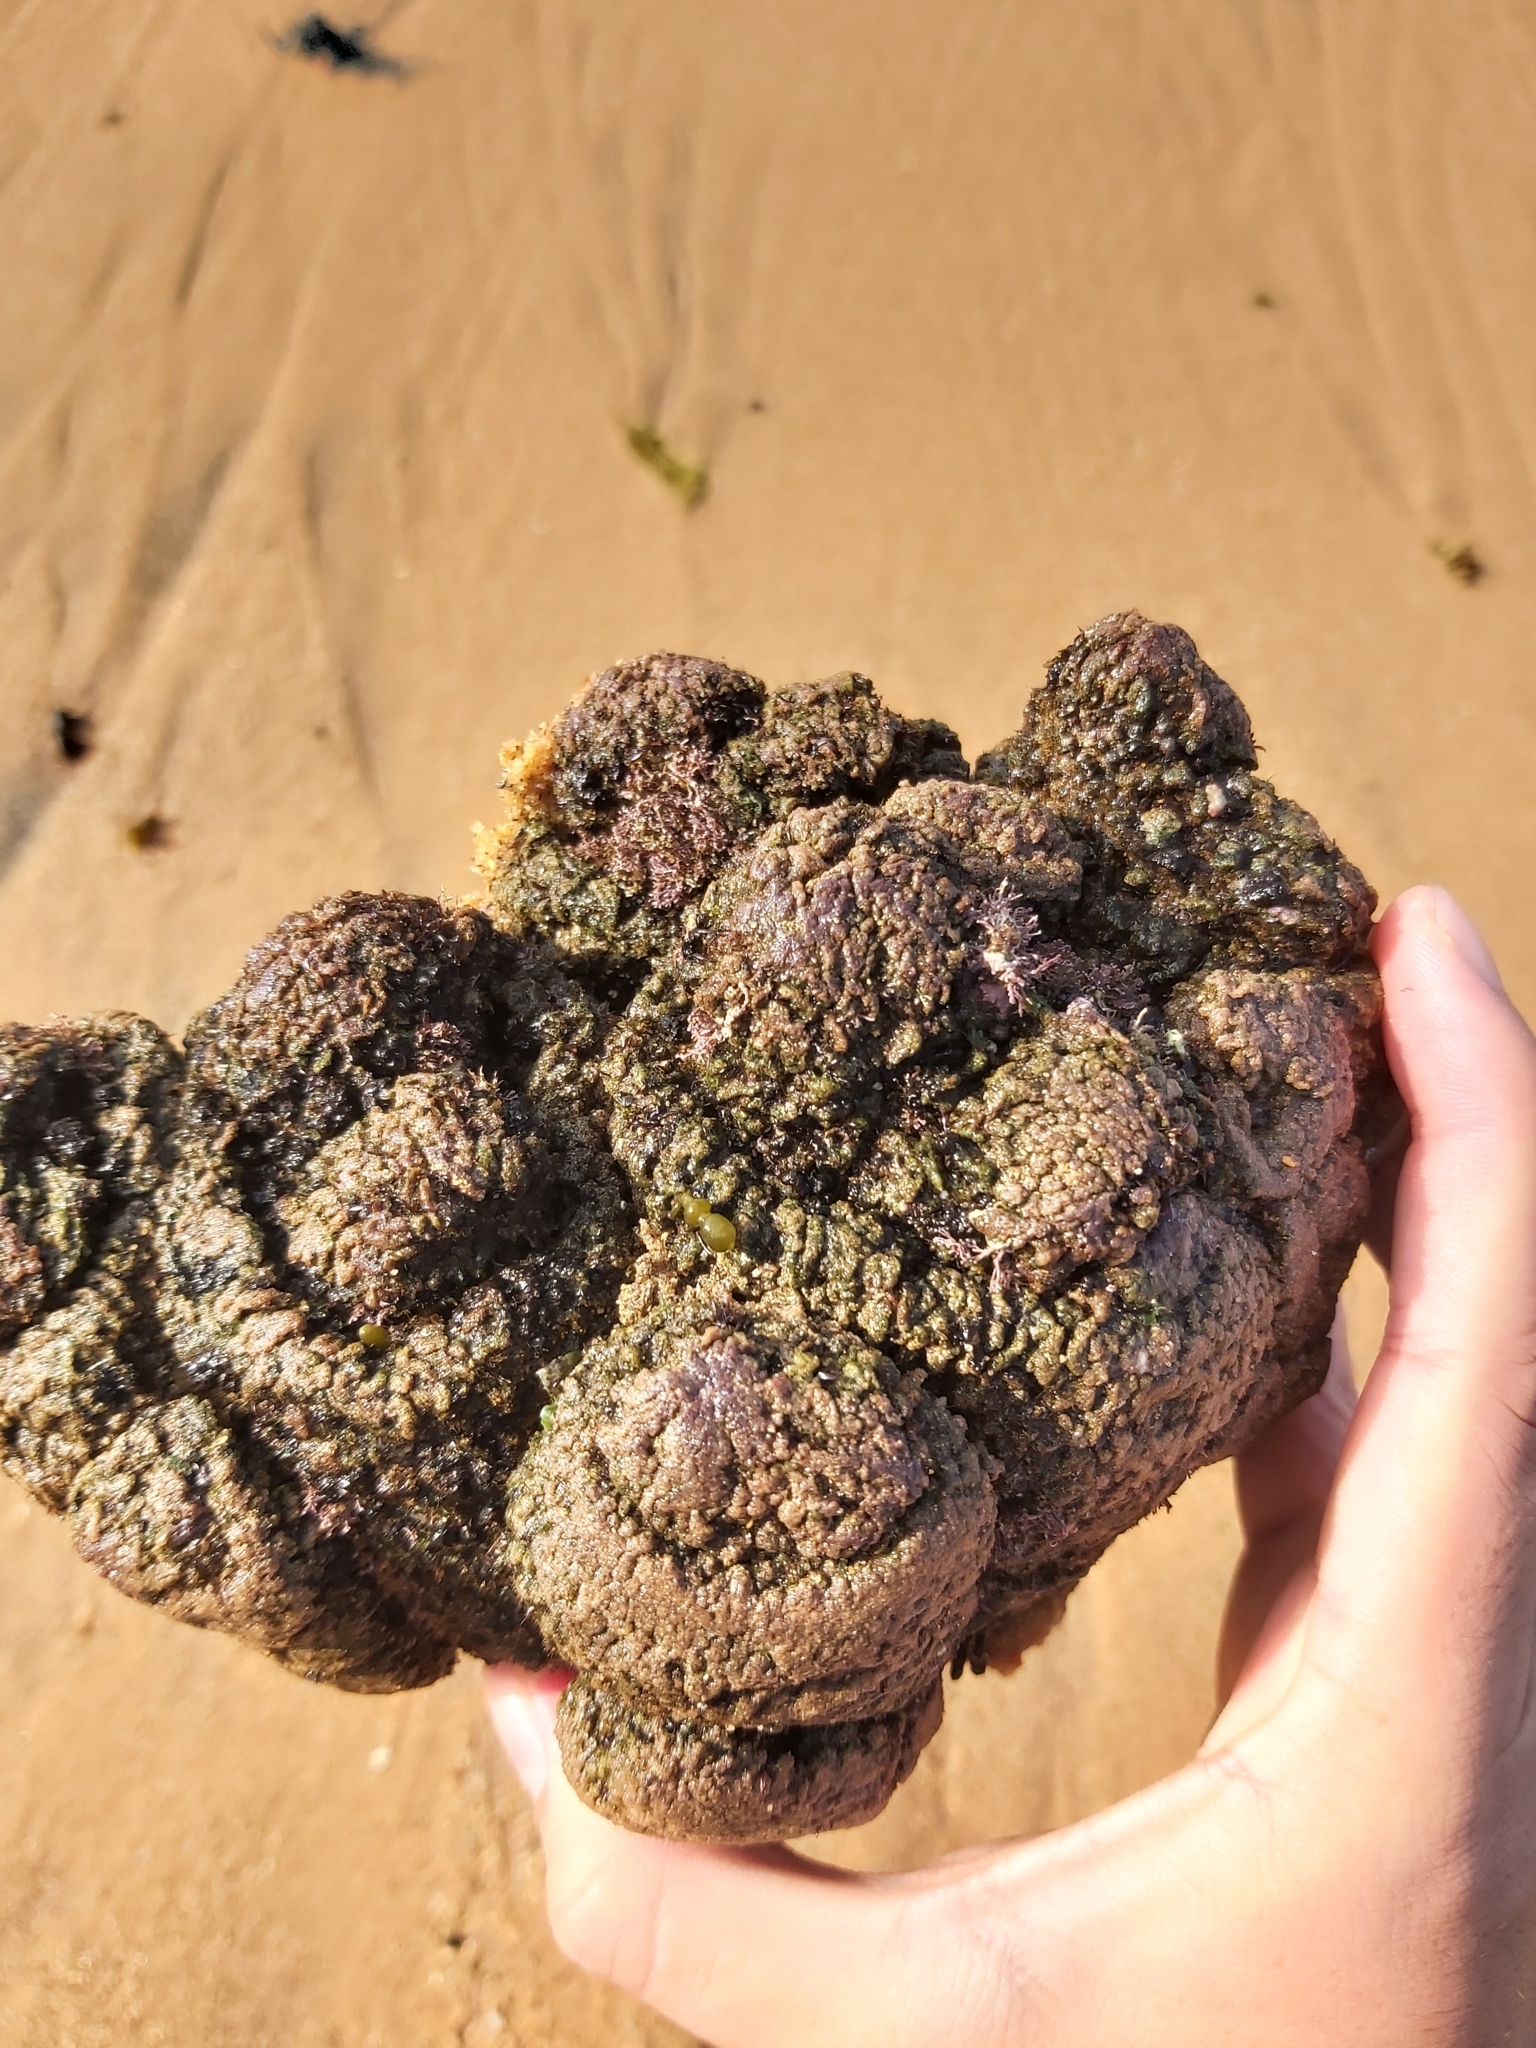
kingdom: Animalia
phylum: Chordata
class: Ascidiacea
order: Stolidobranchia
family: Pyuridae
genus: Pyura
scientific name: Pyura praeputialis
